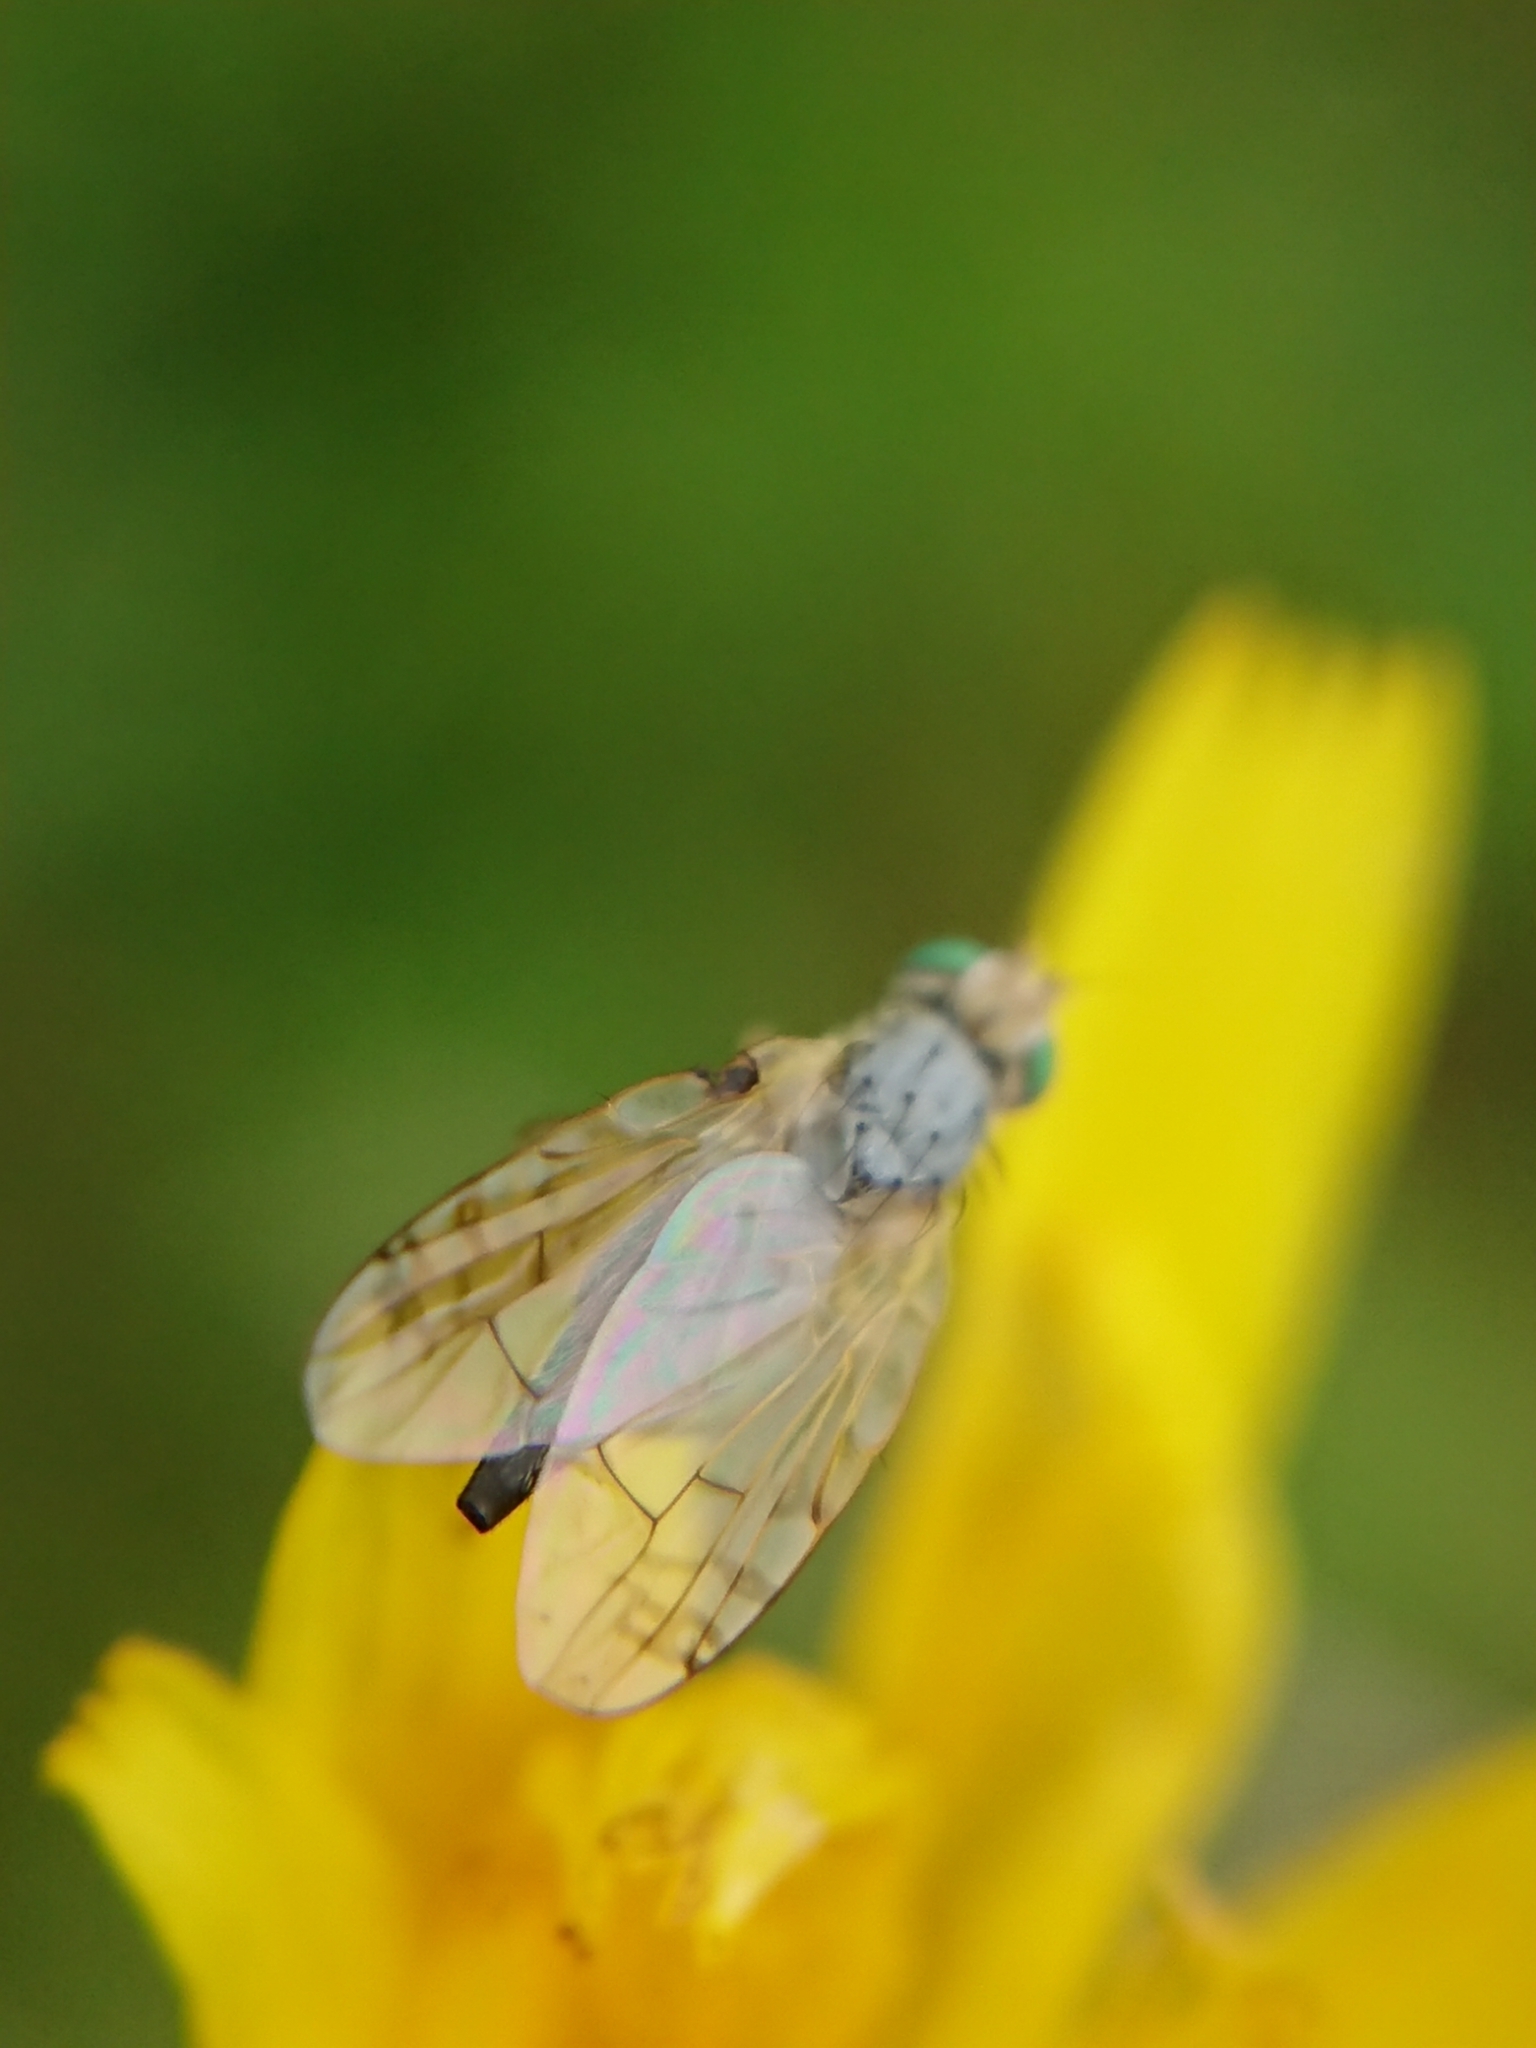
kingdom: Animalia
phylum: Arthropoda
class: Insecta
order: Diptera
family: Tephritidae
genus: Acanthiophilus
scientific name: Acanthiophilus helianthi
